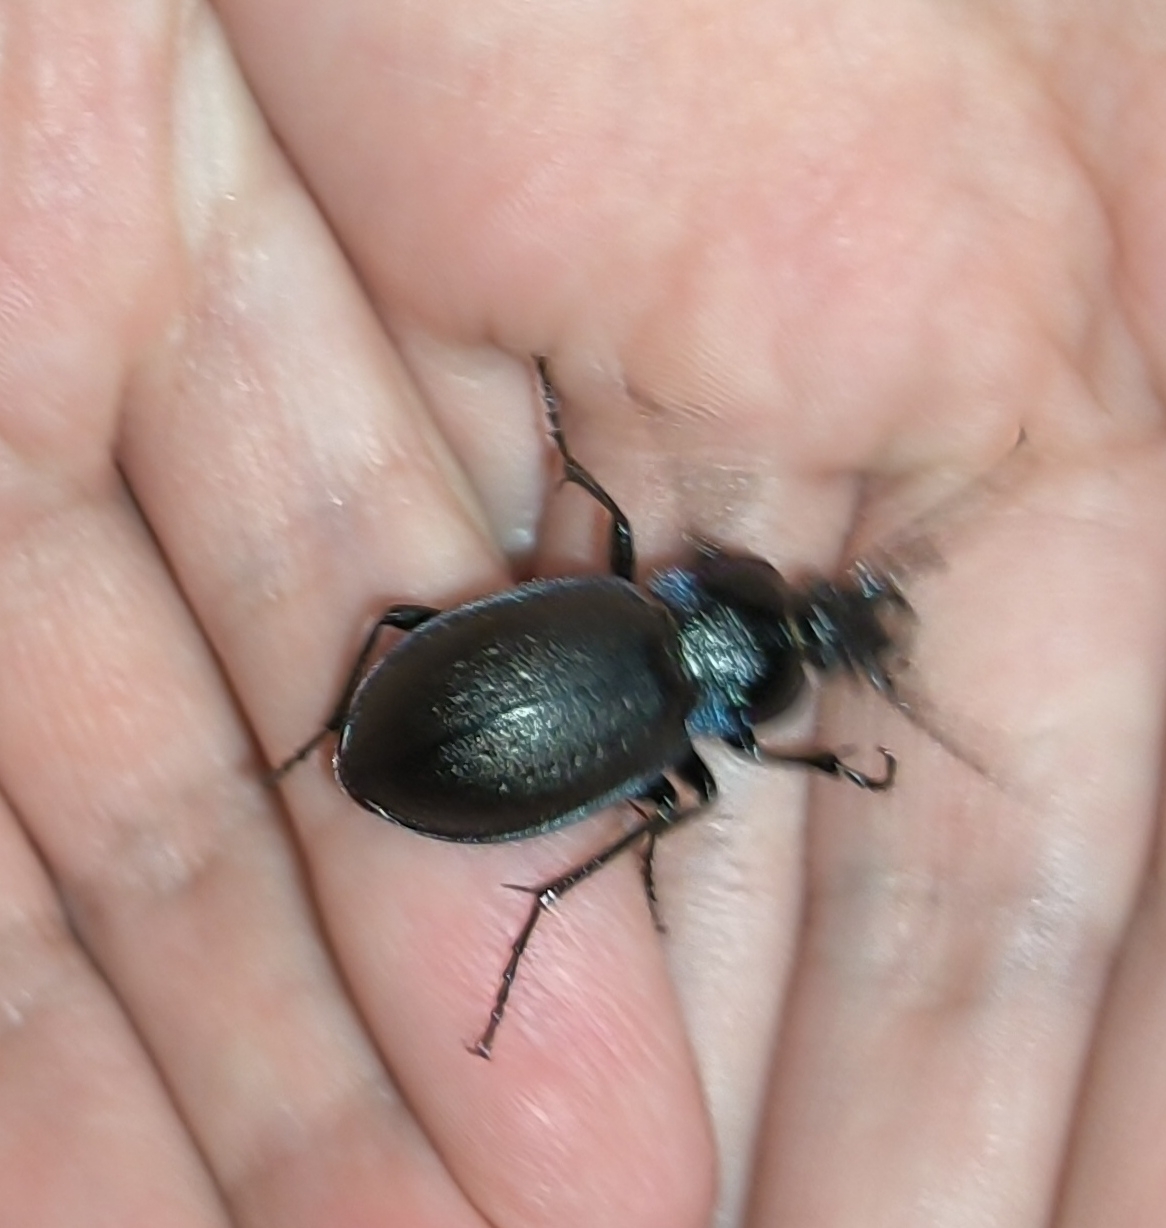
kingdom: Animalia
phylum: Arthropoda
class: Insecta
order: Coleoptera
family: Carabidae
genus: Carabus
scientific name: Carabus nemoralis
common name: European ground beetle
